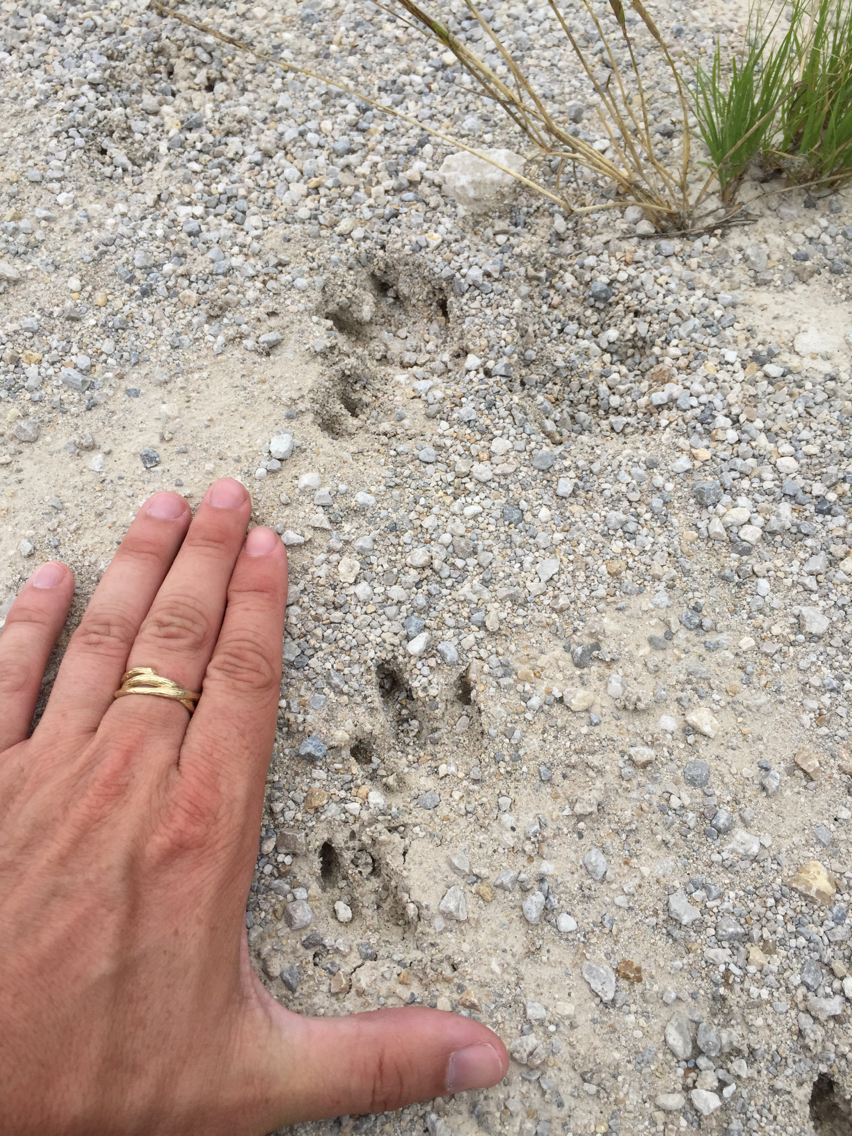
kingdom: Animalia
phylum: Chordata
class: Mammalia
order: Cingulata
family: Dasypodidae
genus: Dasypus
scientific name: Dasypus novemcinctus
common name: Nine-banded armadillo
